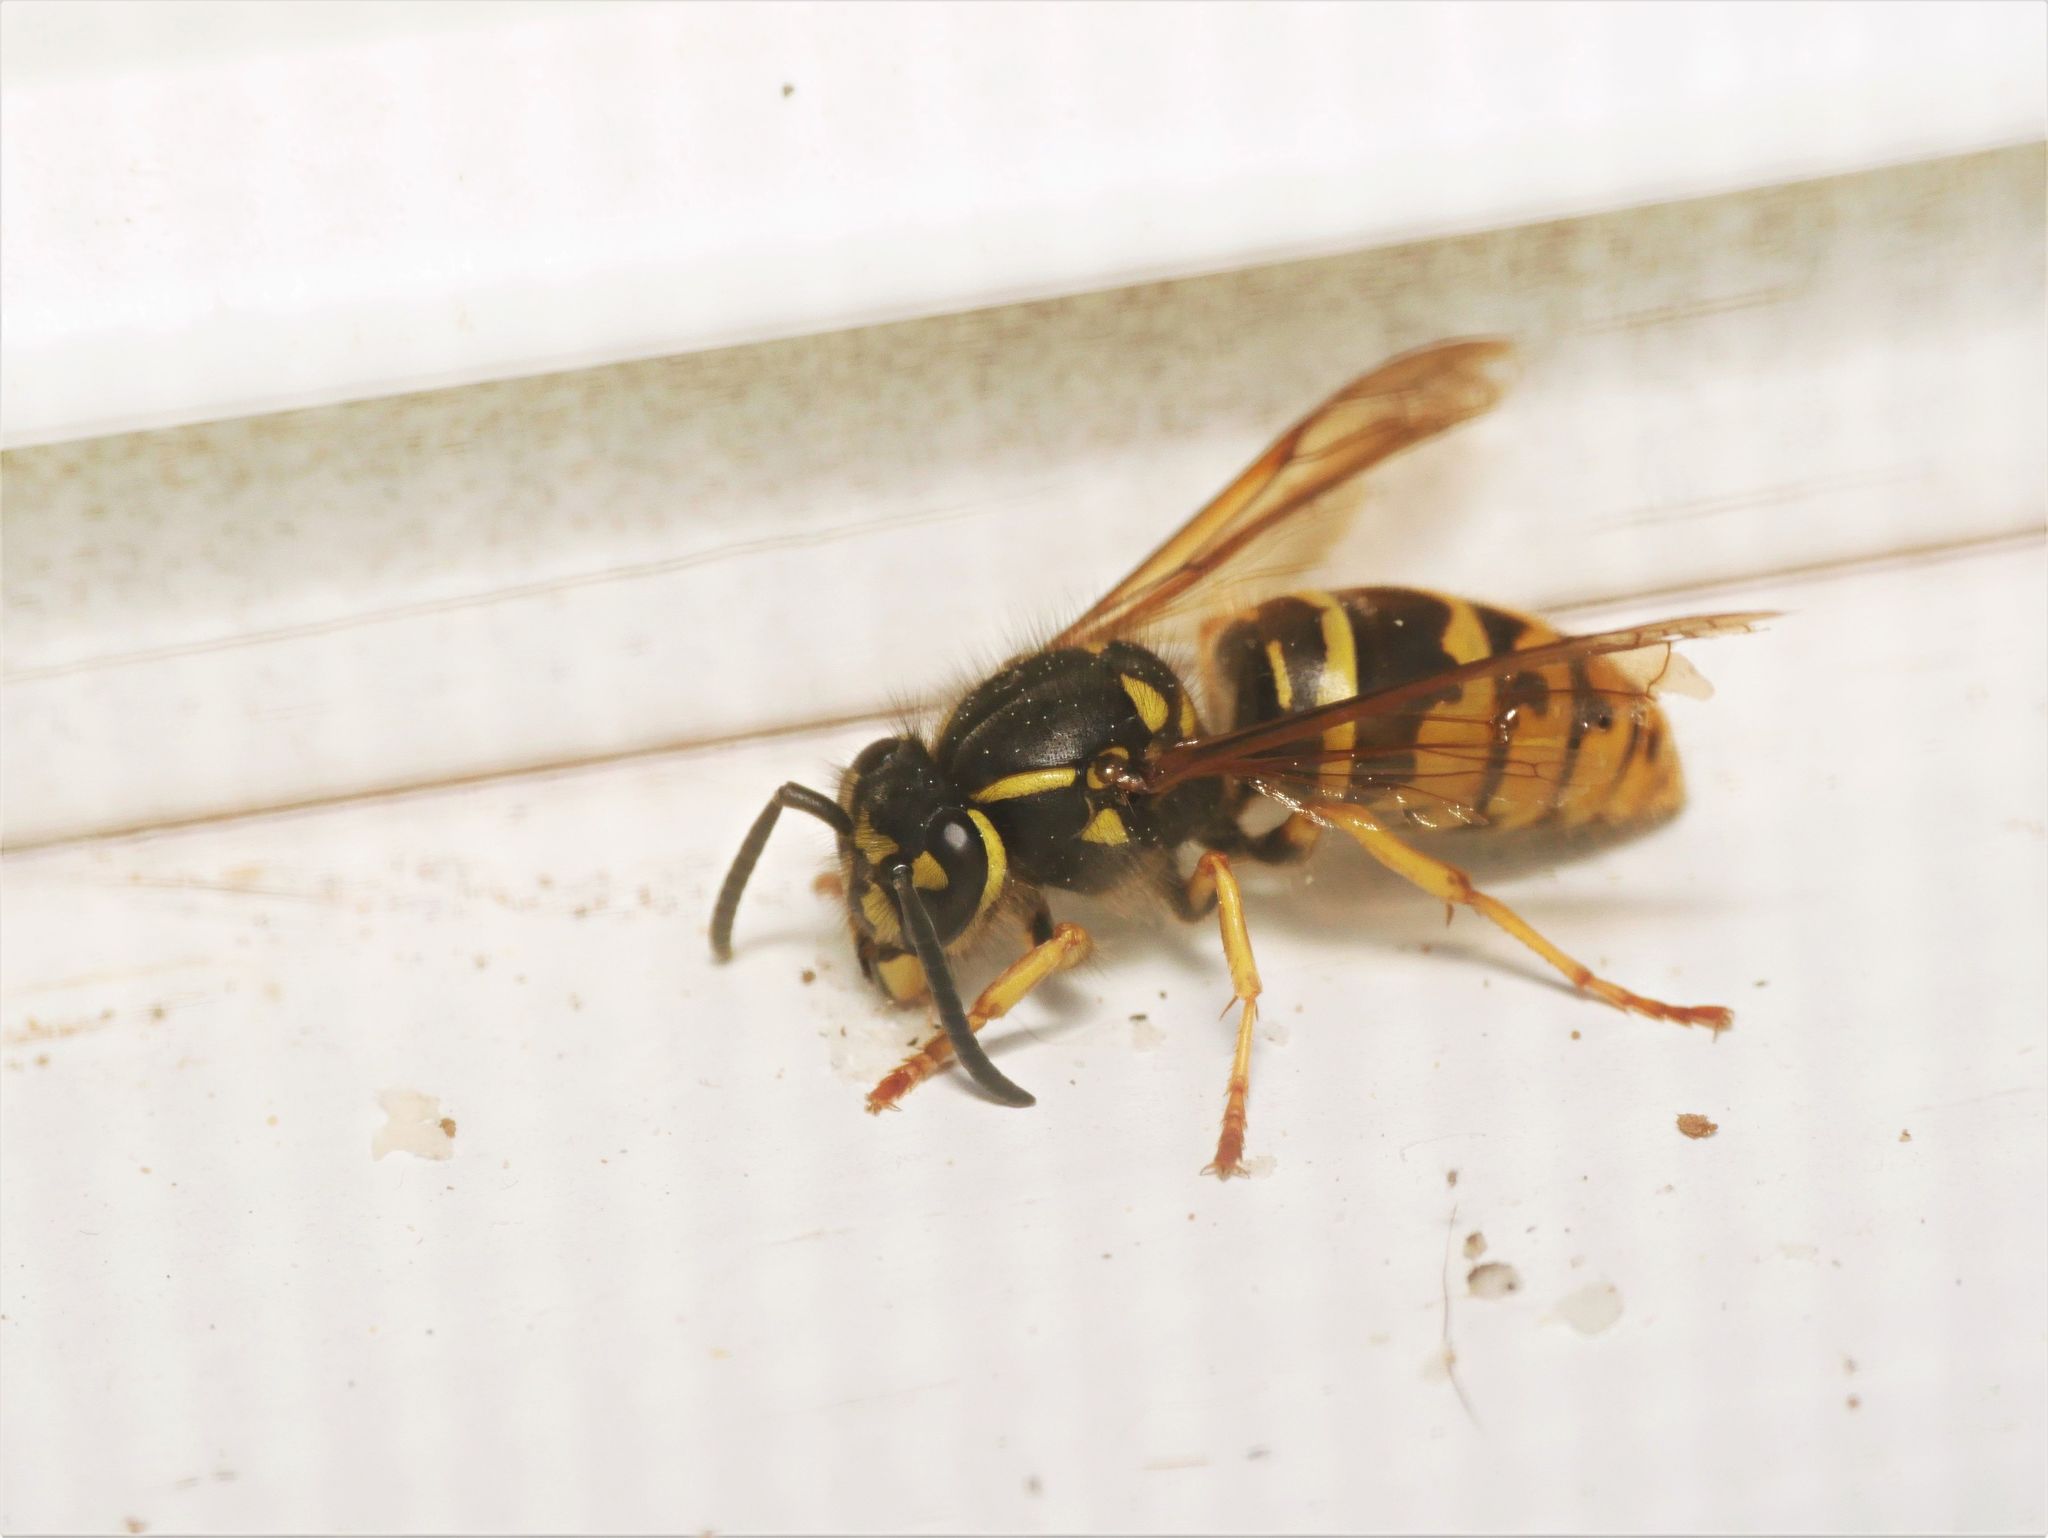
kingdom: Animalia
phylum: Arthropoda
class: Insecta
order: Hymenoptera
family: Vespidae
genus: Vespula
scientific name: Vespula maculifrons
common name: Eastern yellowjacket
